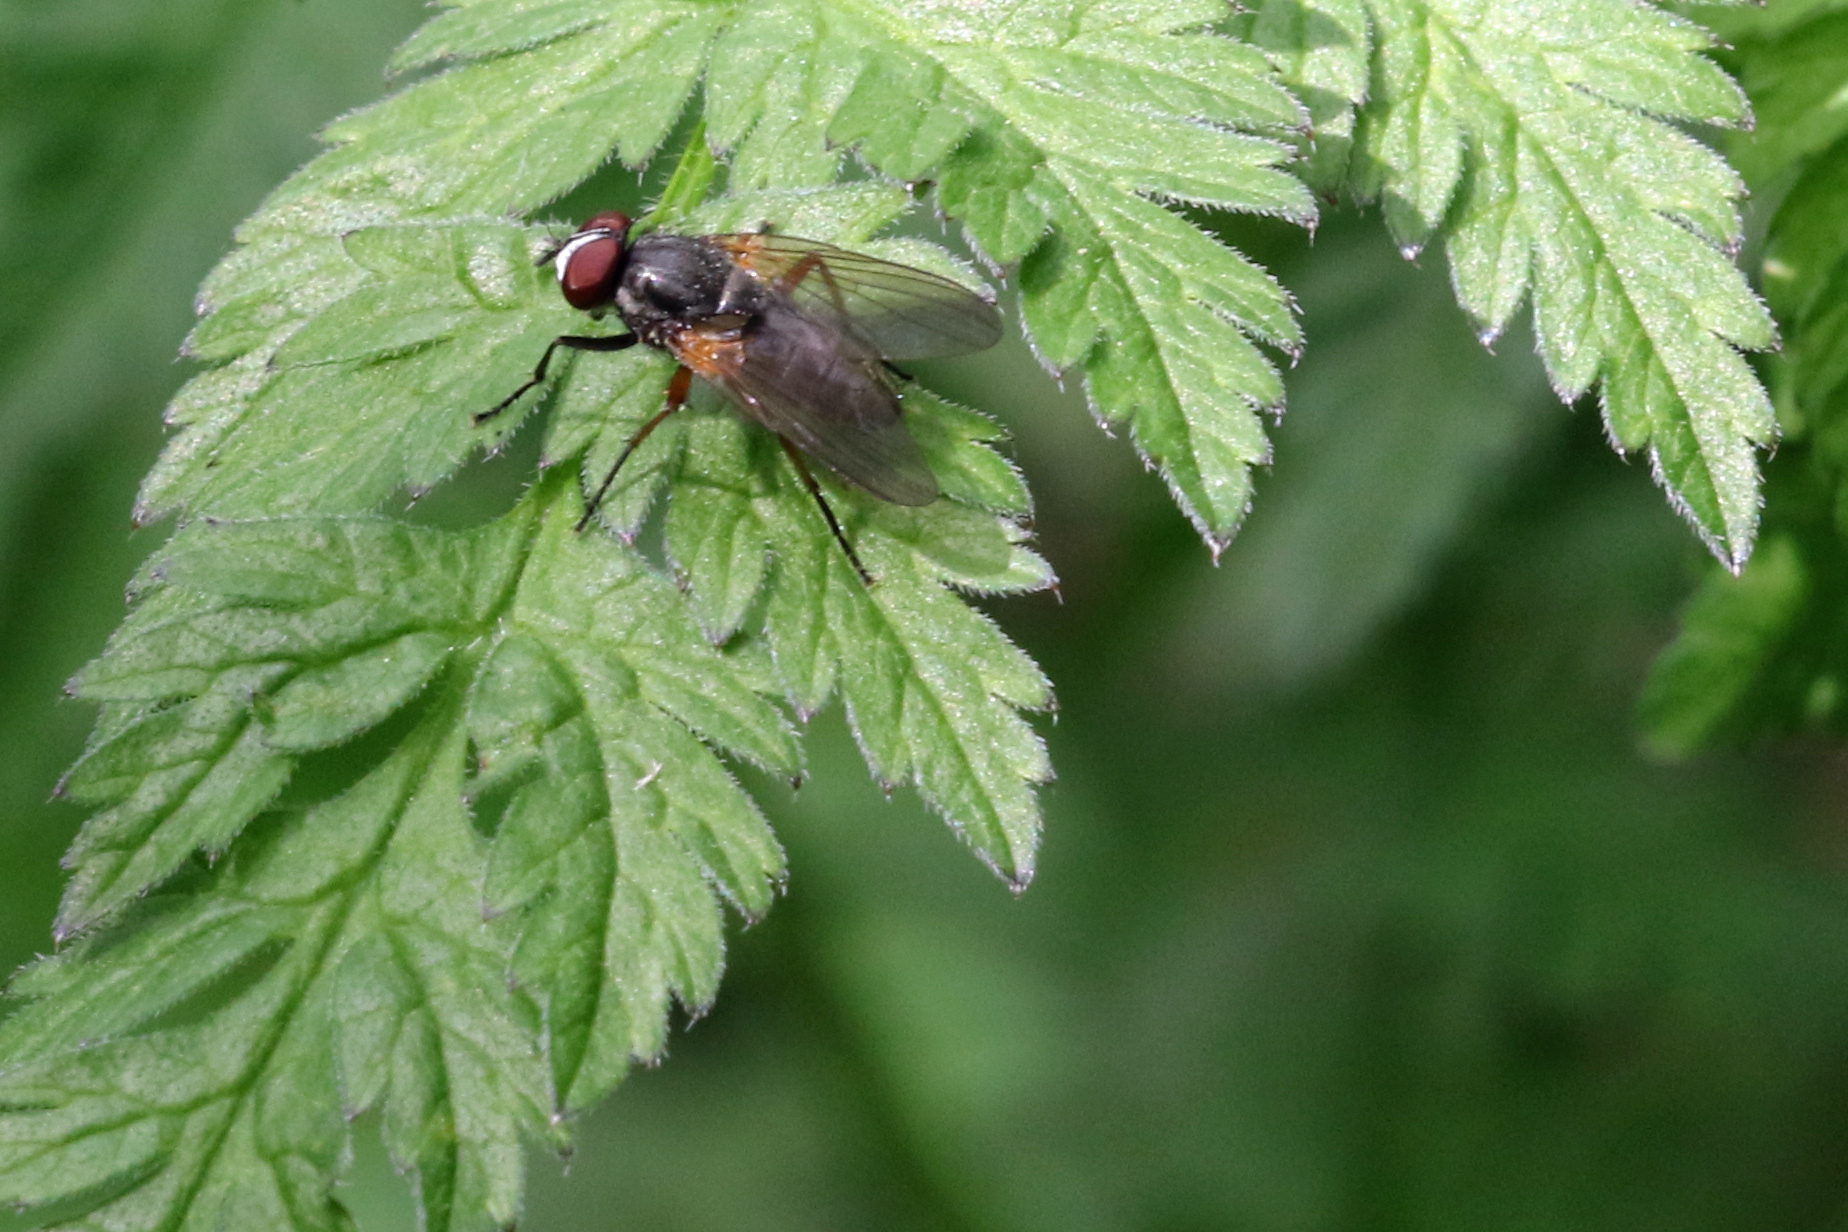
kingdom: Animalia
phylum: Arthropoda
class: Insecta
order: Diptera
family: Fanniidae
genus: Fannia
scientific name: Fannia lustrator
